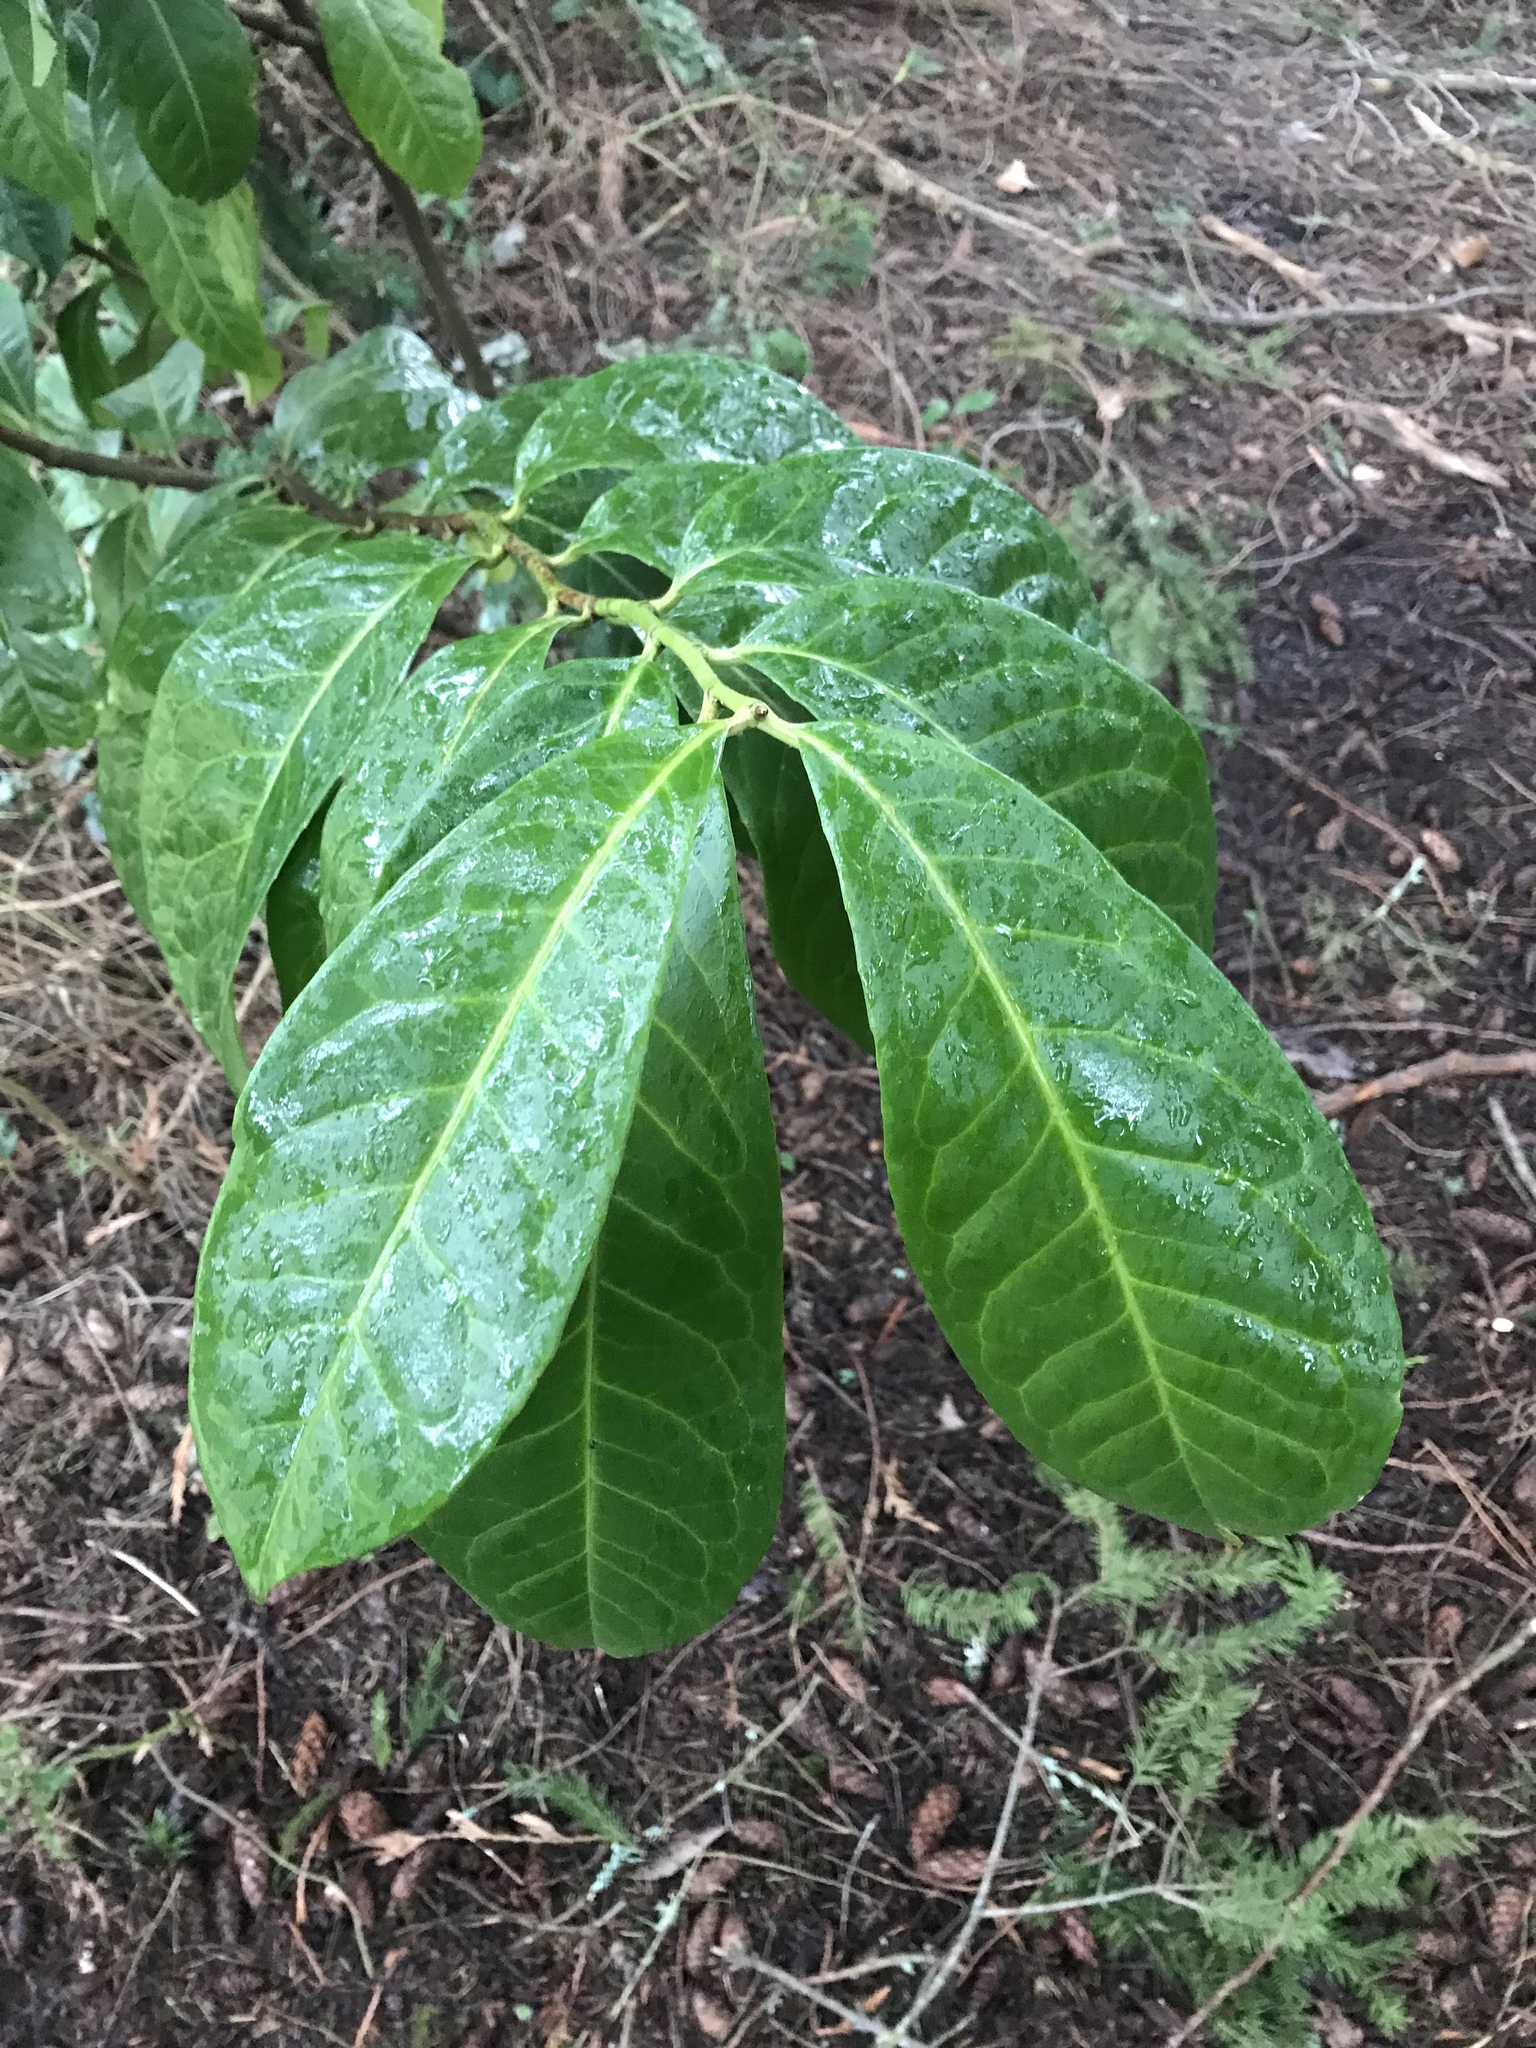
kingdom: Plantae
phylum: Tracheophyta
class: Magnoliopsida
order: Rosales
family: Rosaceae
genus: Prunus
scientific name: Prunus laurocerasus
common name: Cherry laurel
